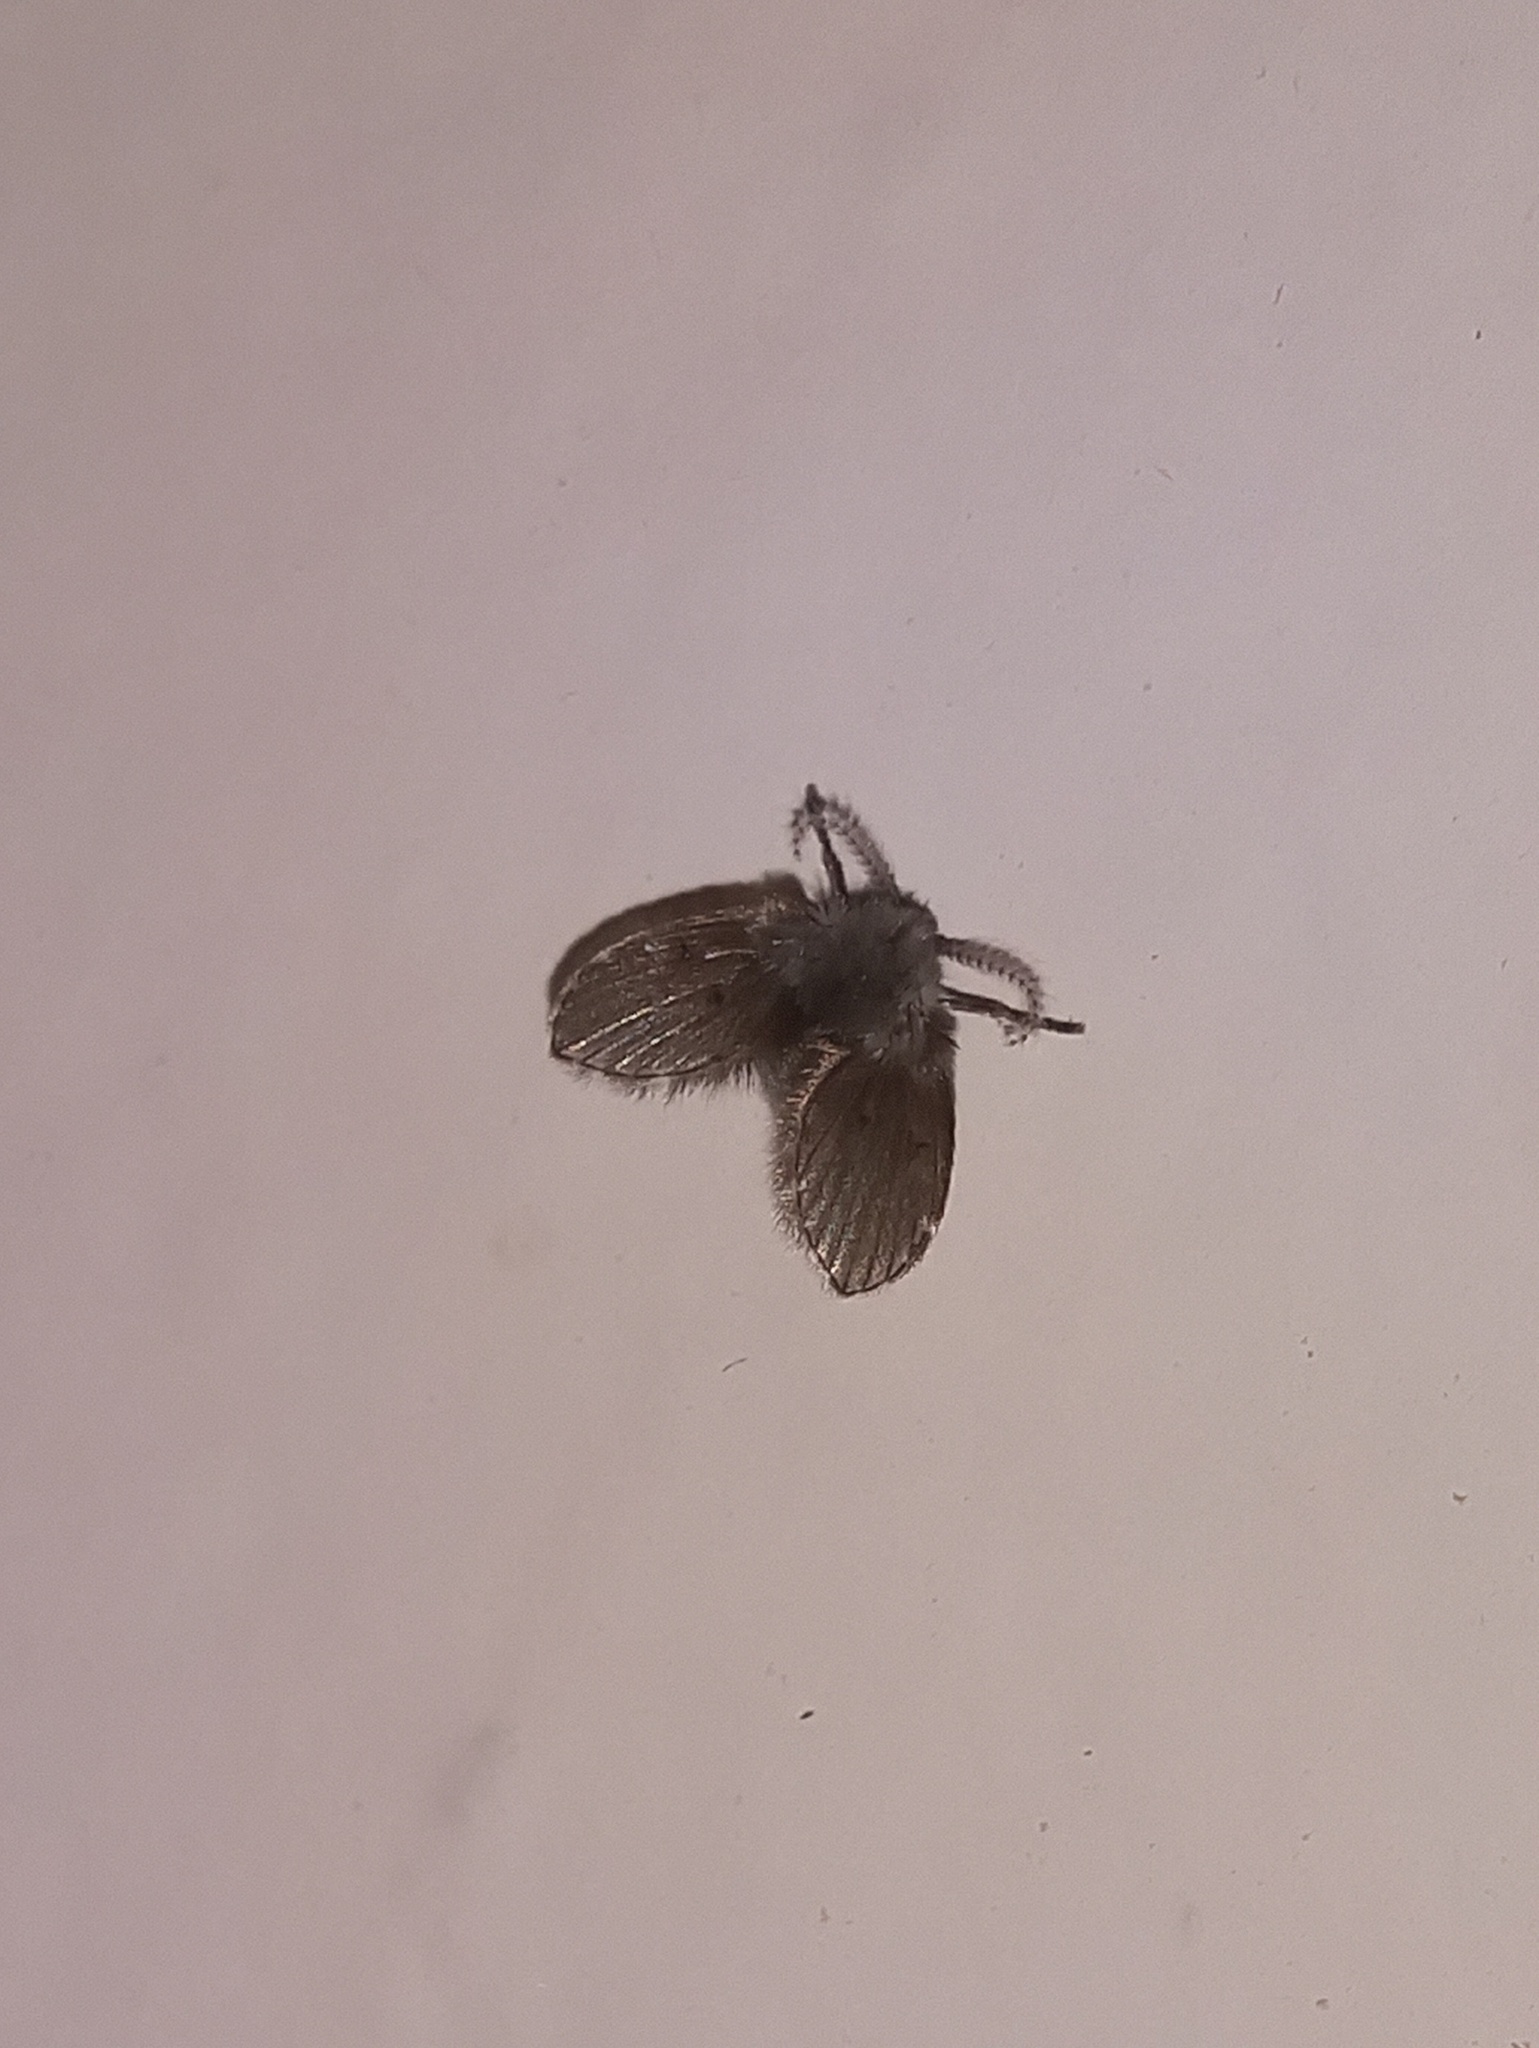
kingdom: Animalia
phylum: Arthropoda
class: Insecta
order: Diptera
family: Psychodidae
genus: Clogmia
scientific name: Clogmia albipunctatus
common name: White-spotted moth fly
